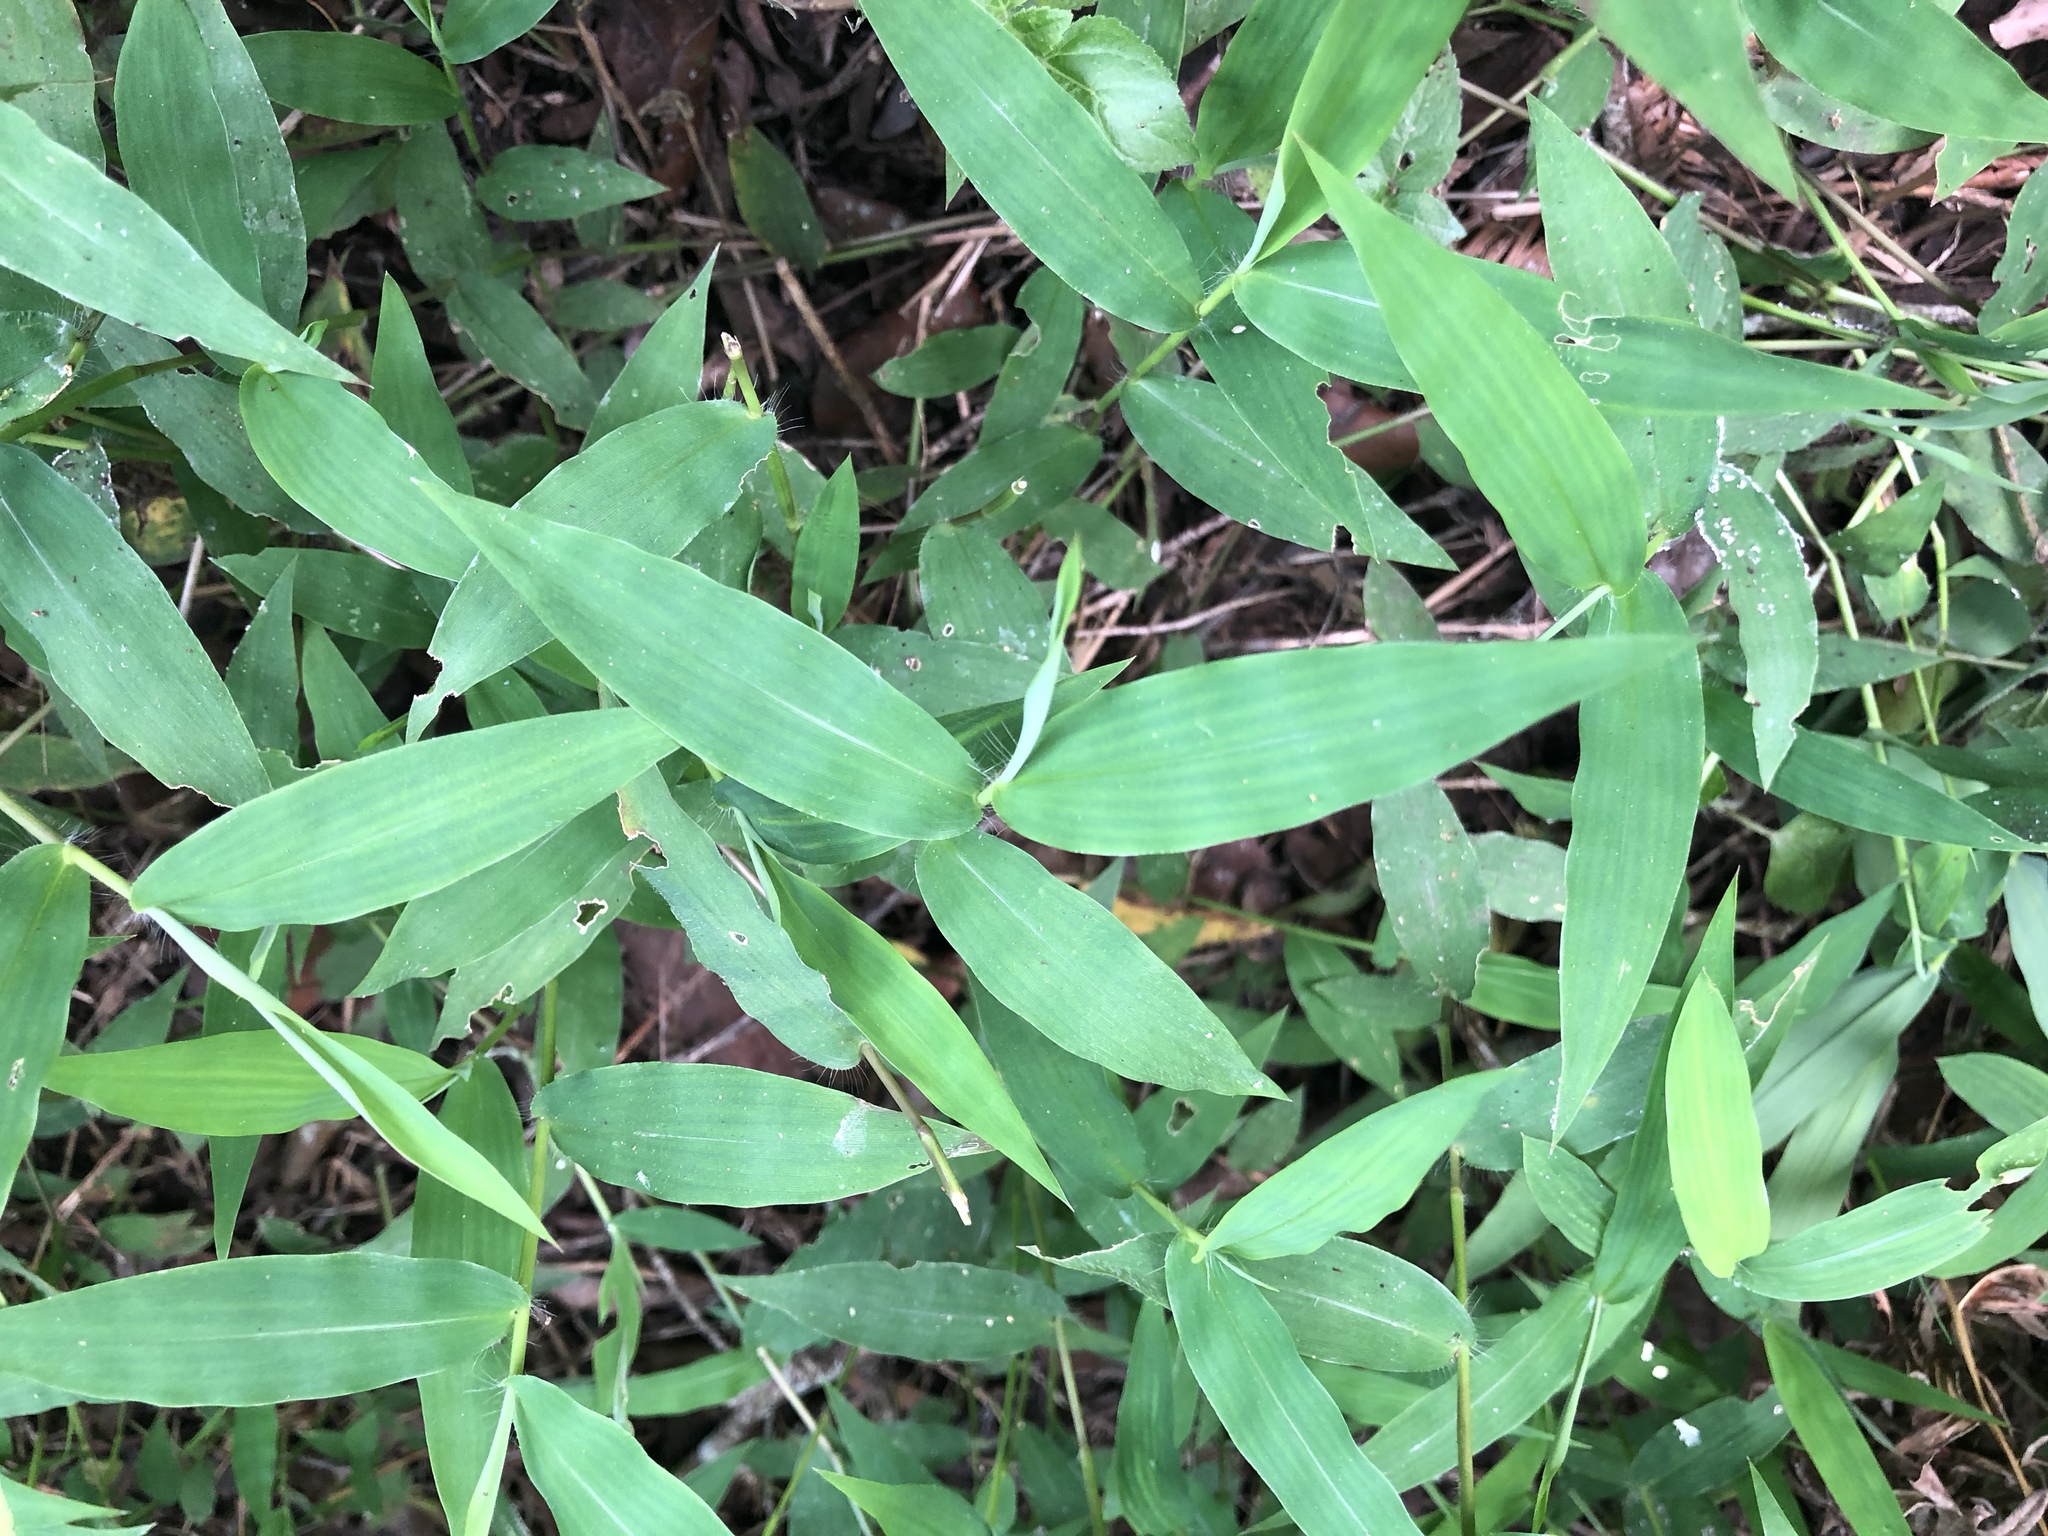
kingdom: Plantae
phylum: Tracheophyta
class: Liliopsida
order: Poales
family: Poaceae
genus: Cyrtococcum
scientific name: Cyrtococcum patens
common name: Broad-leaved bowgrass
